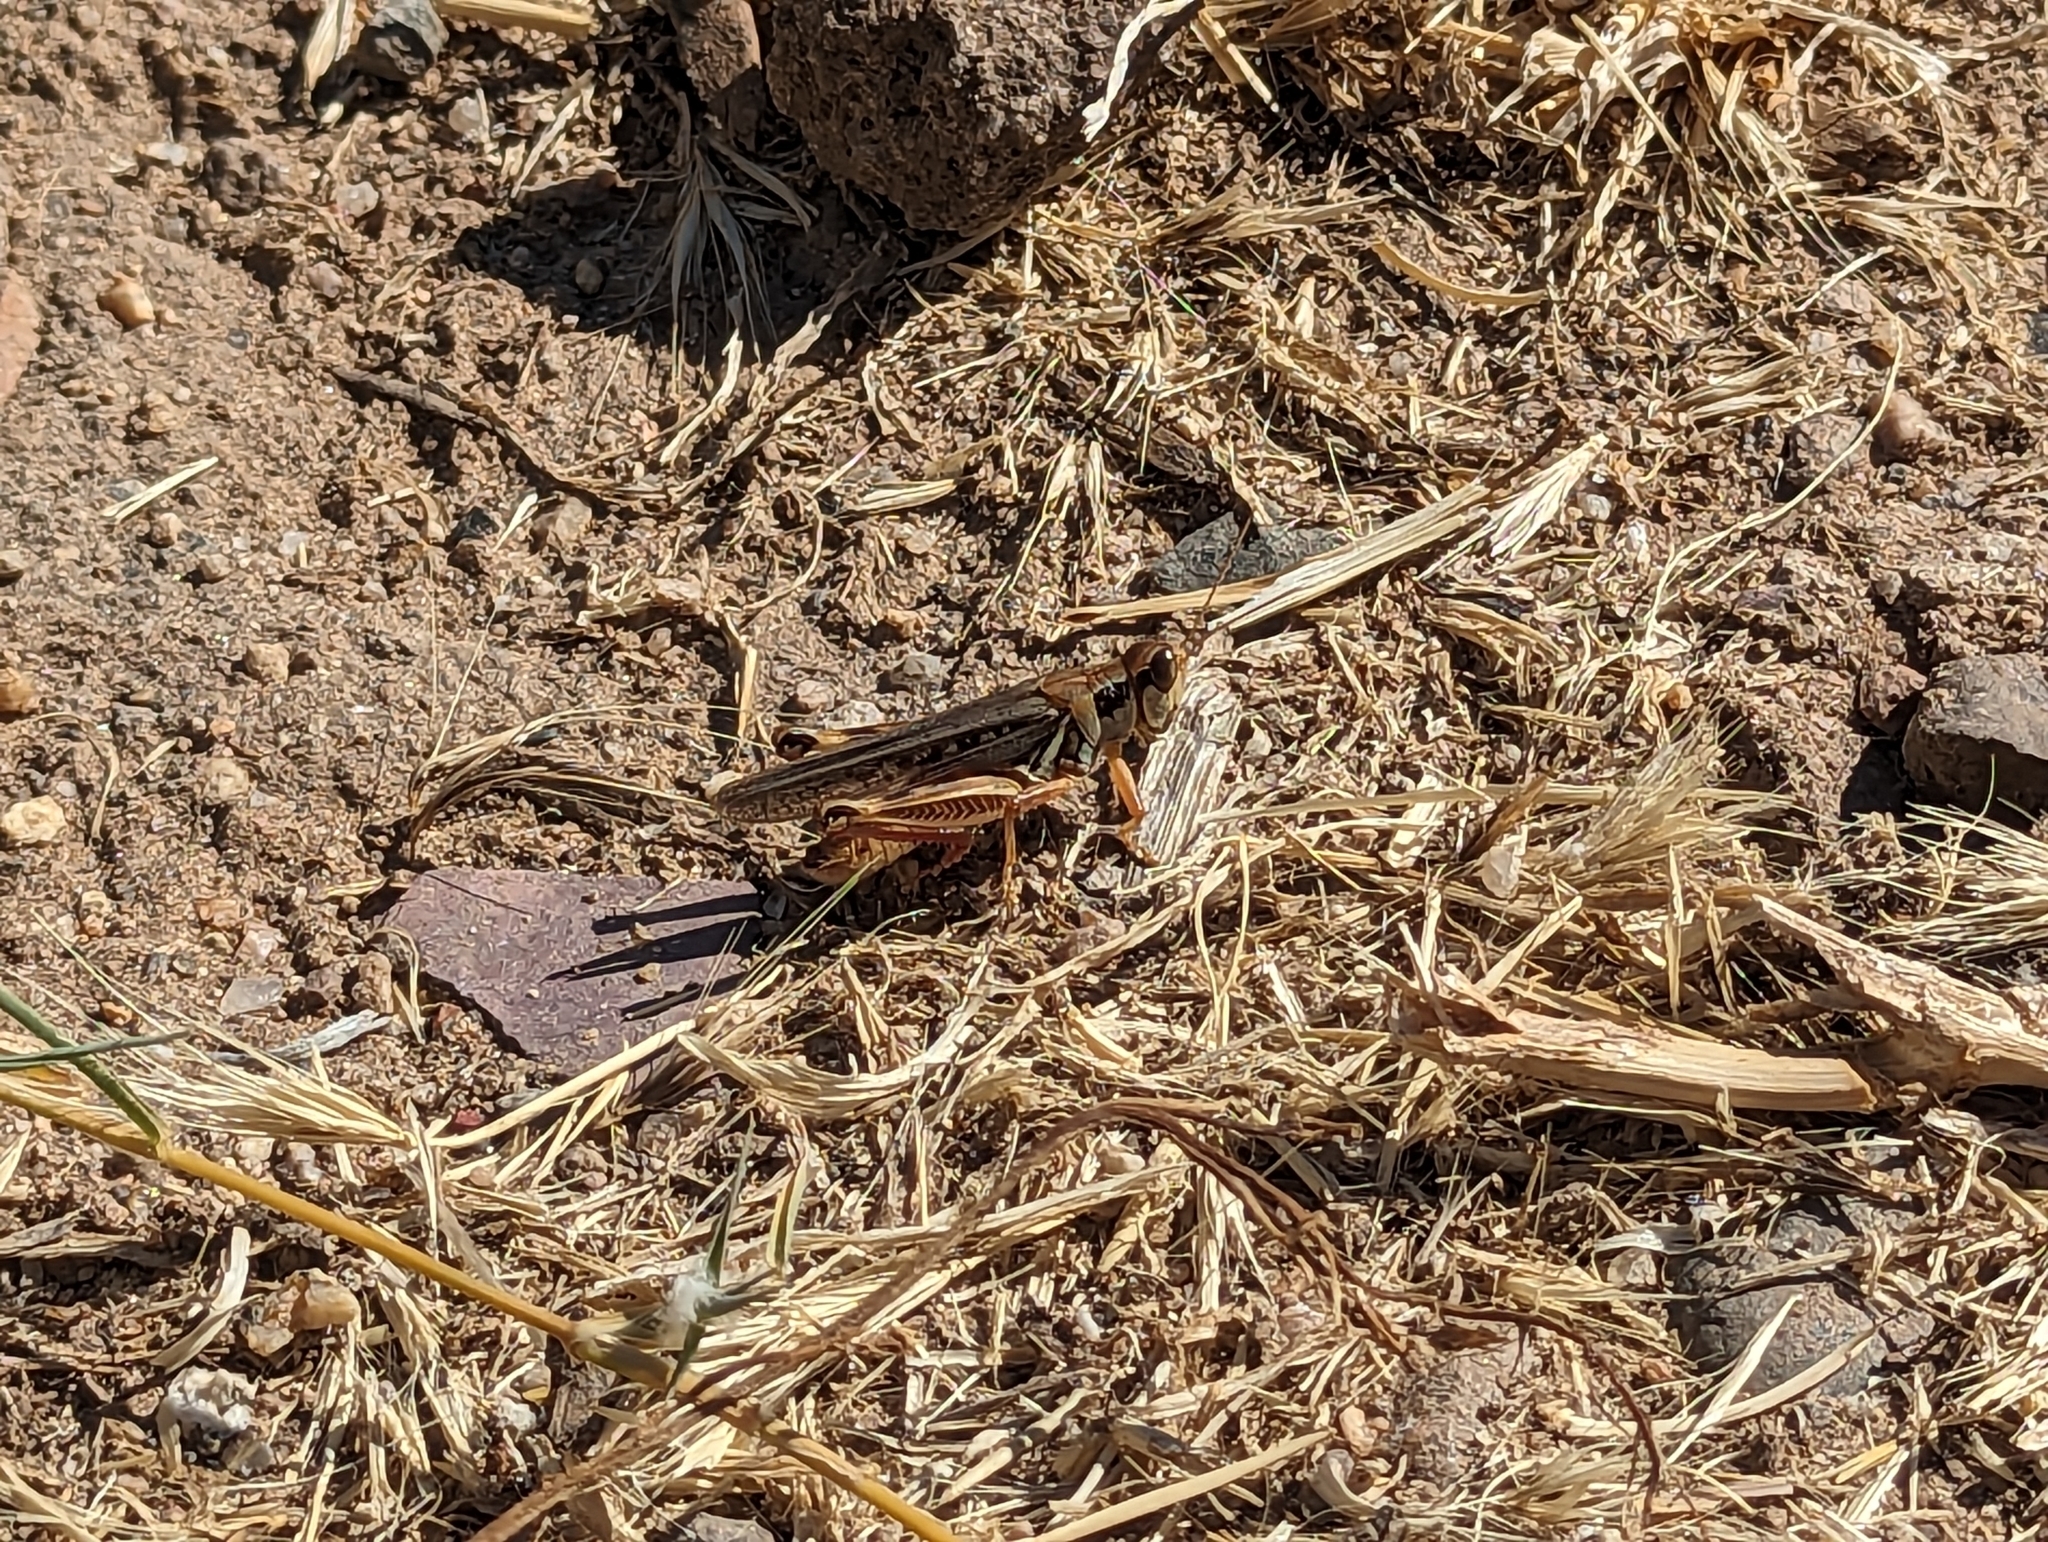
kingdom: Animalia
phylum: Arthropoda
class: Insecta
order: Orthoptera
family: Acrididae
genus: Melanoplus
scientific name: Melanoplus sanguinipes
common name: Migratory grasshopper
